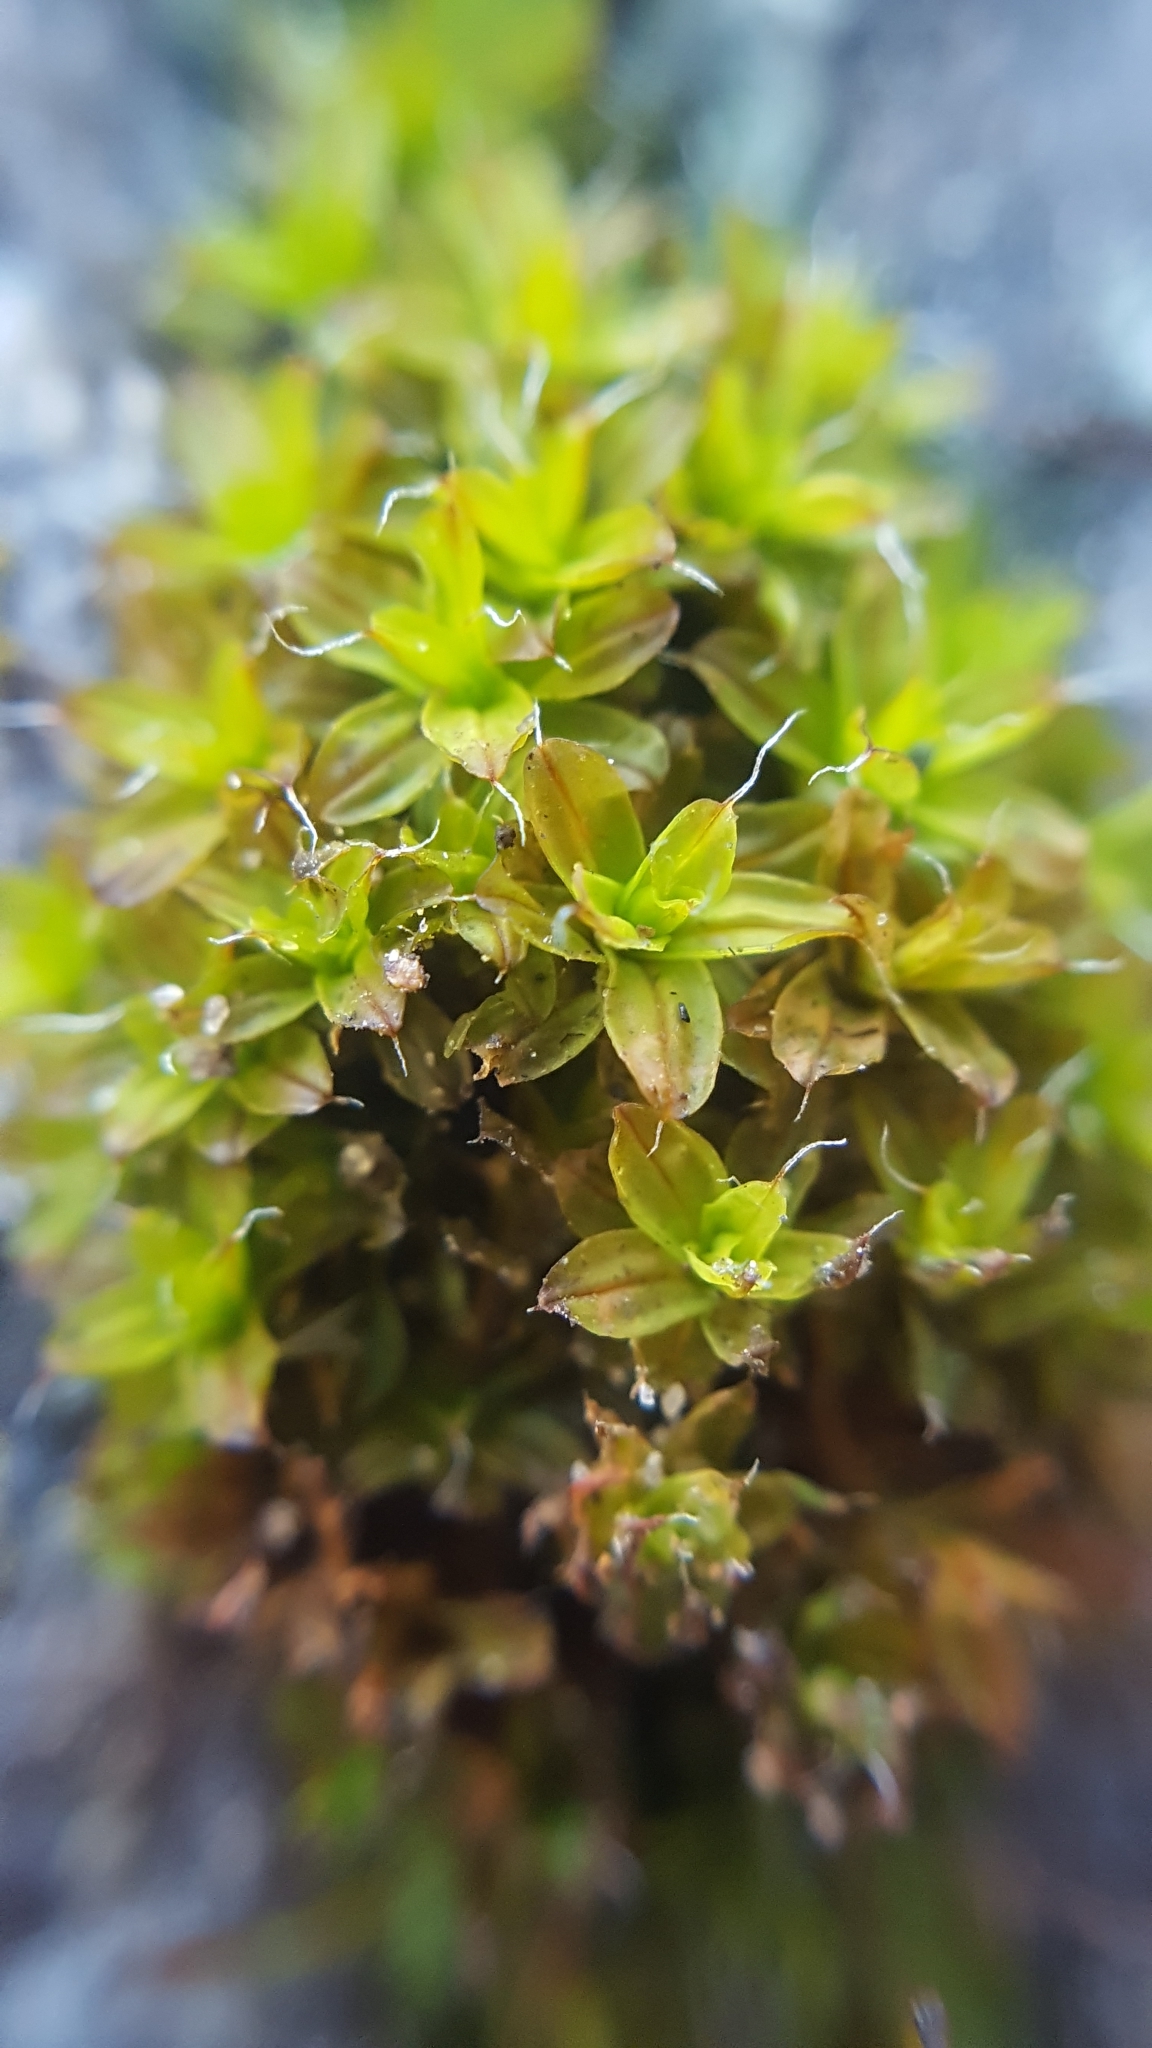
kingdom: Plantae
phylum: Bryophyta
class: Bryopsida
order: Pottiales
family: Pottiaceae
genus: Syntrichia
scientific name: Syntrichia ruralis
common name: Sidewalk screw moss
